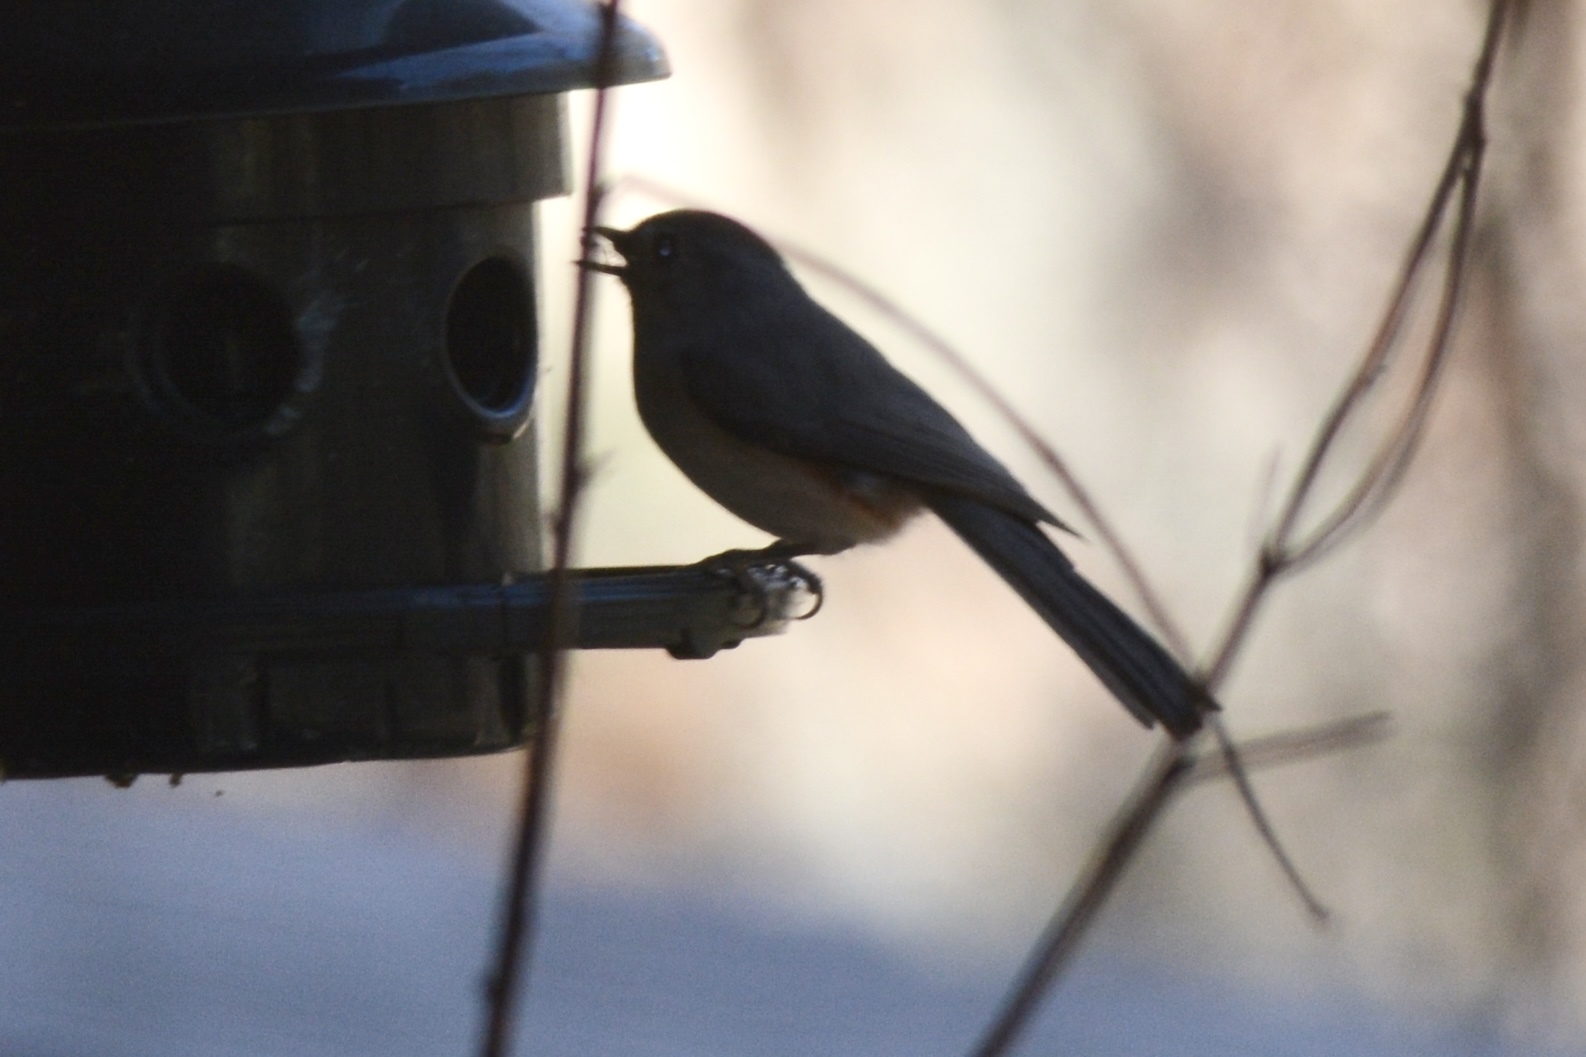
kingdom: Animalia
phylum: Chordata
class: Aves
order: Passeriformes
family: Paridae
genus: Baeolophus
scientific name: Baeolophus bicolor
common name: Tufted titmouse
